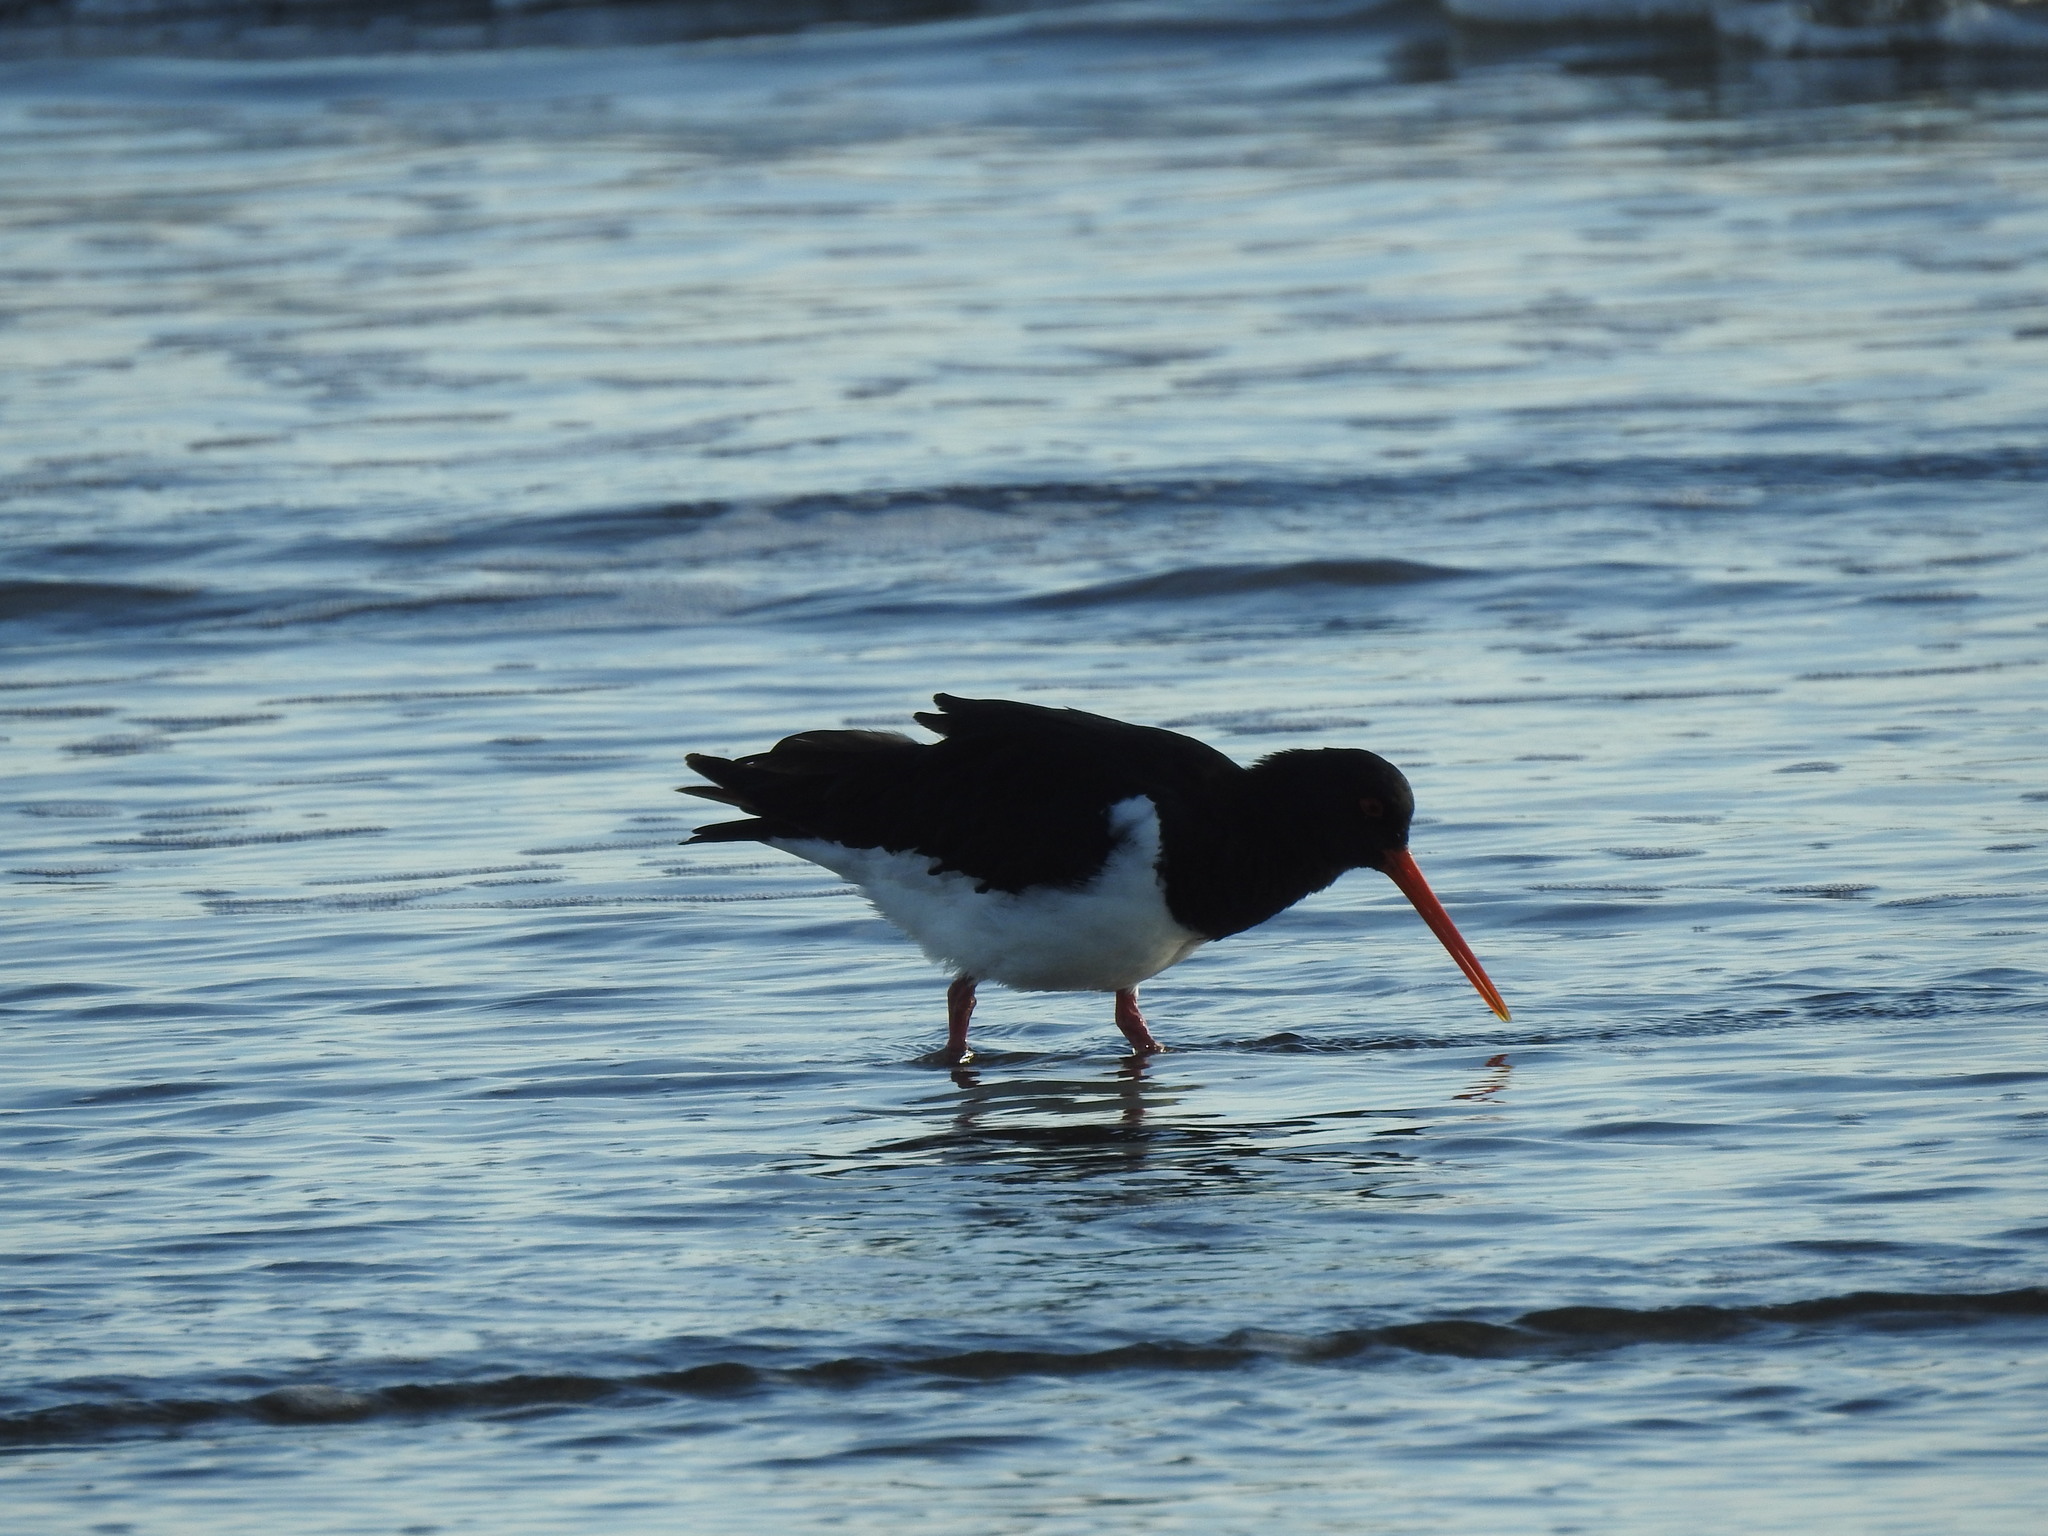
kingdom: Animalia
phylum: Chordata
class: Aves
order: Charadriiformes
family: Haematopodidae
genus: Haematopus
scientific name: Haematopus finschi
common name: South island oystercatcher
